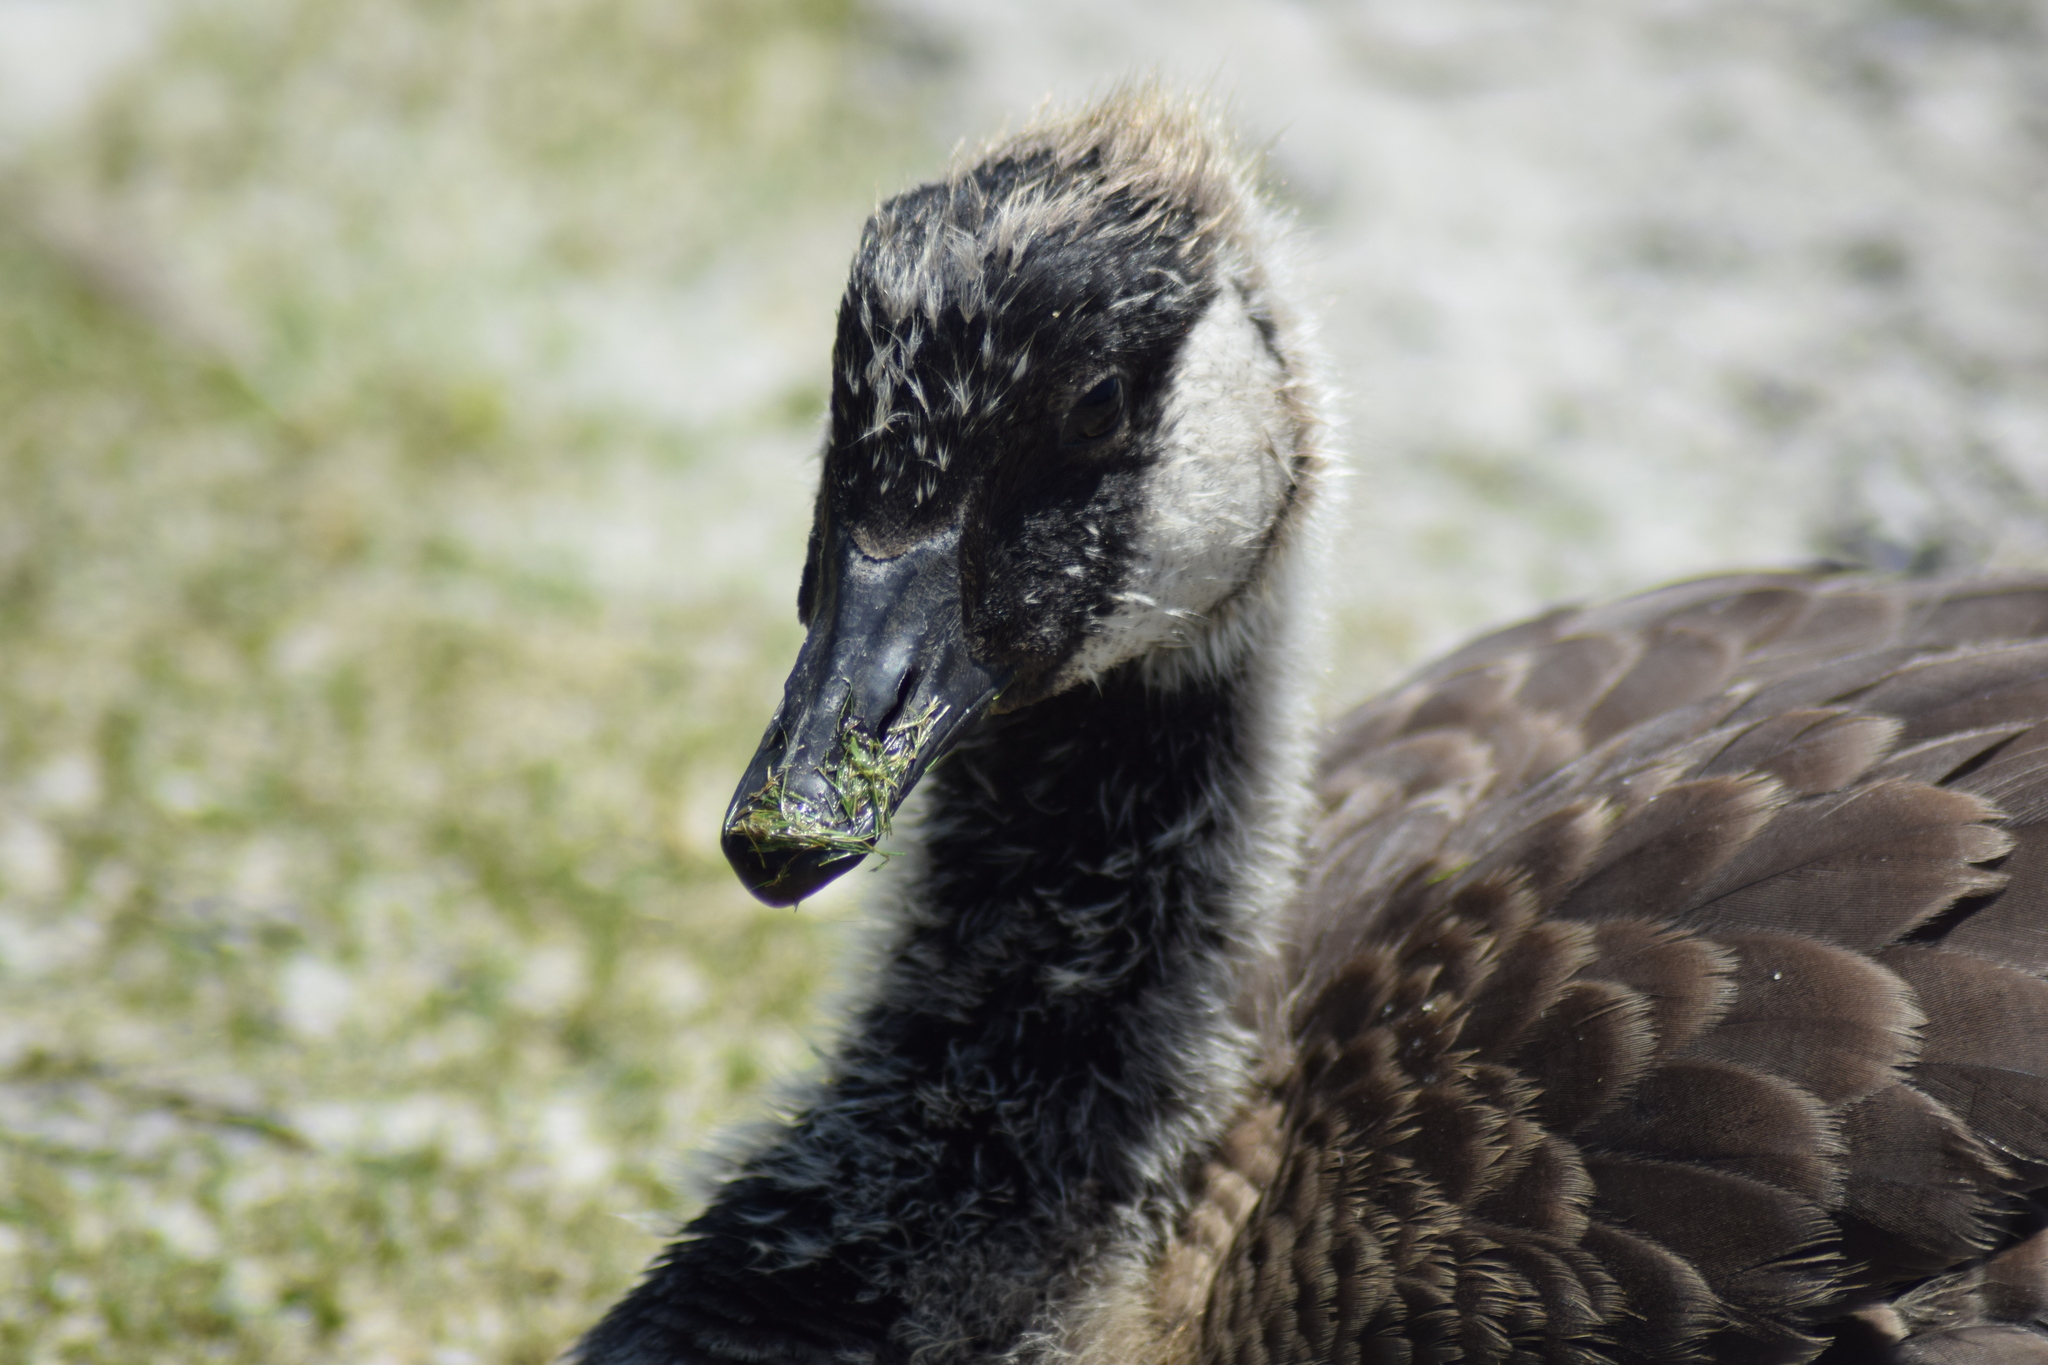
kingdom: Animalia
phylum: Chordata
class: Aves
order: Anseriformes
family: Anatidae
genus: Branta
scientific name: Branta canadensis
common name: Canada goose
